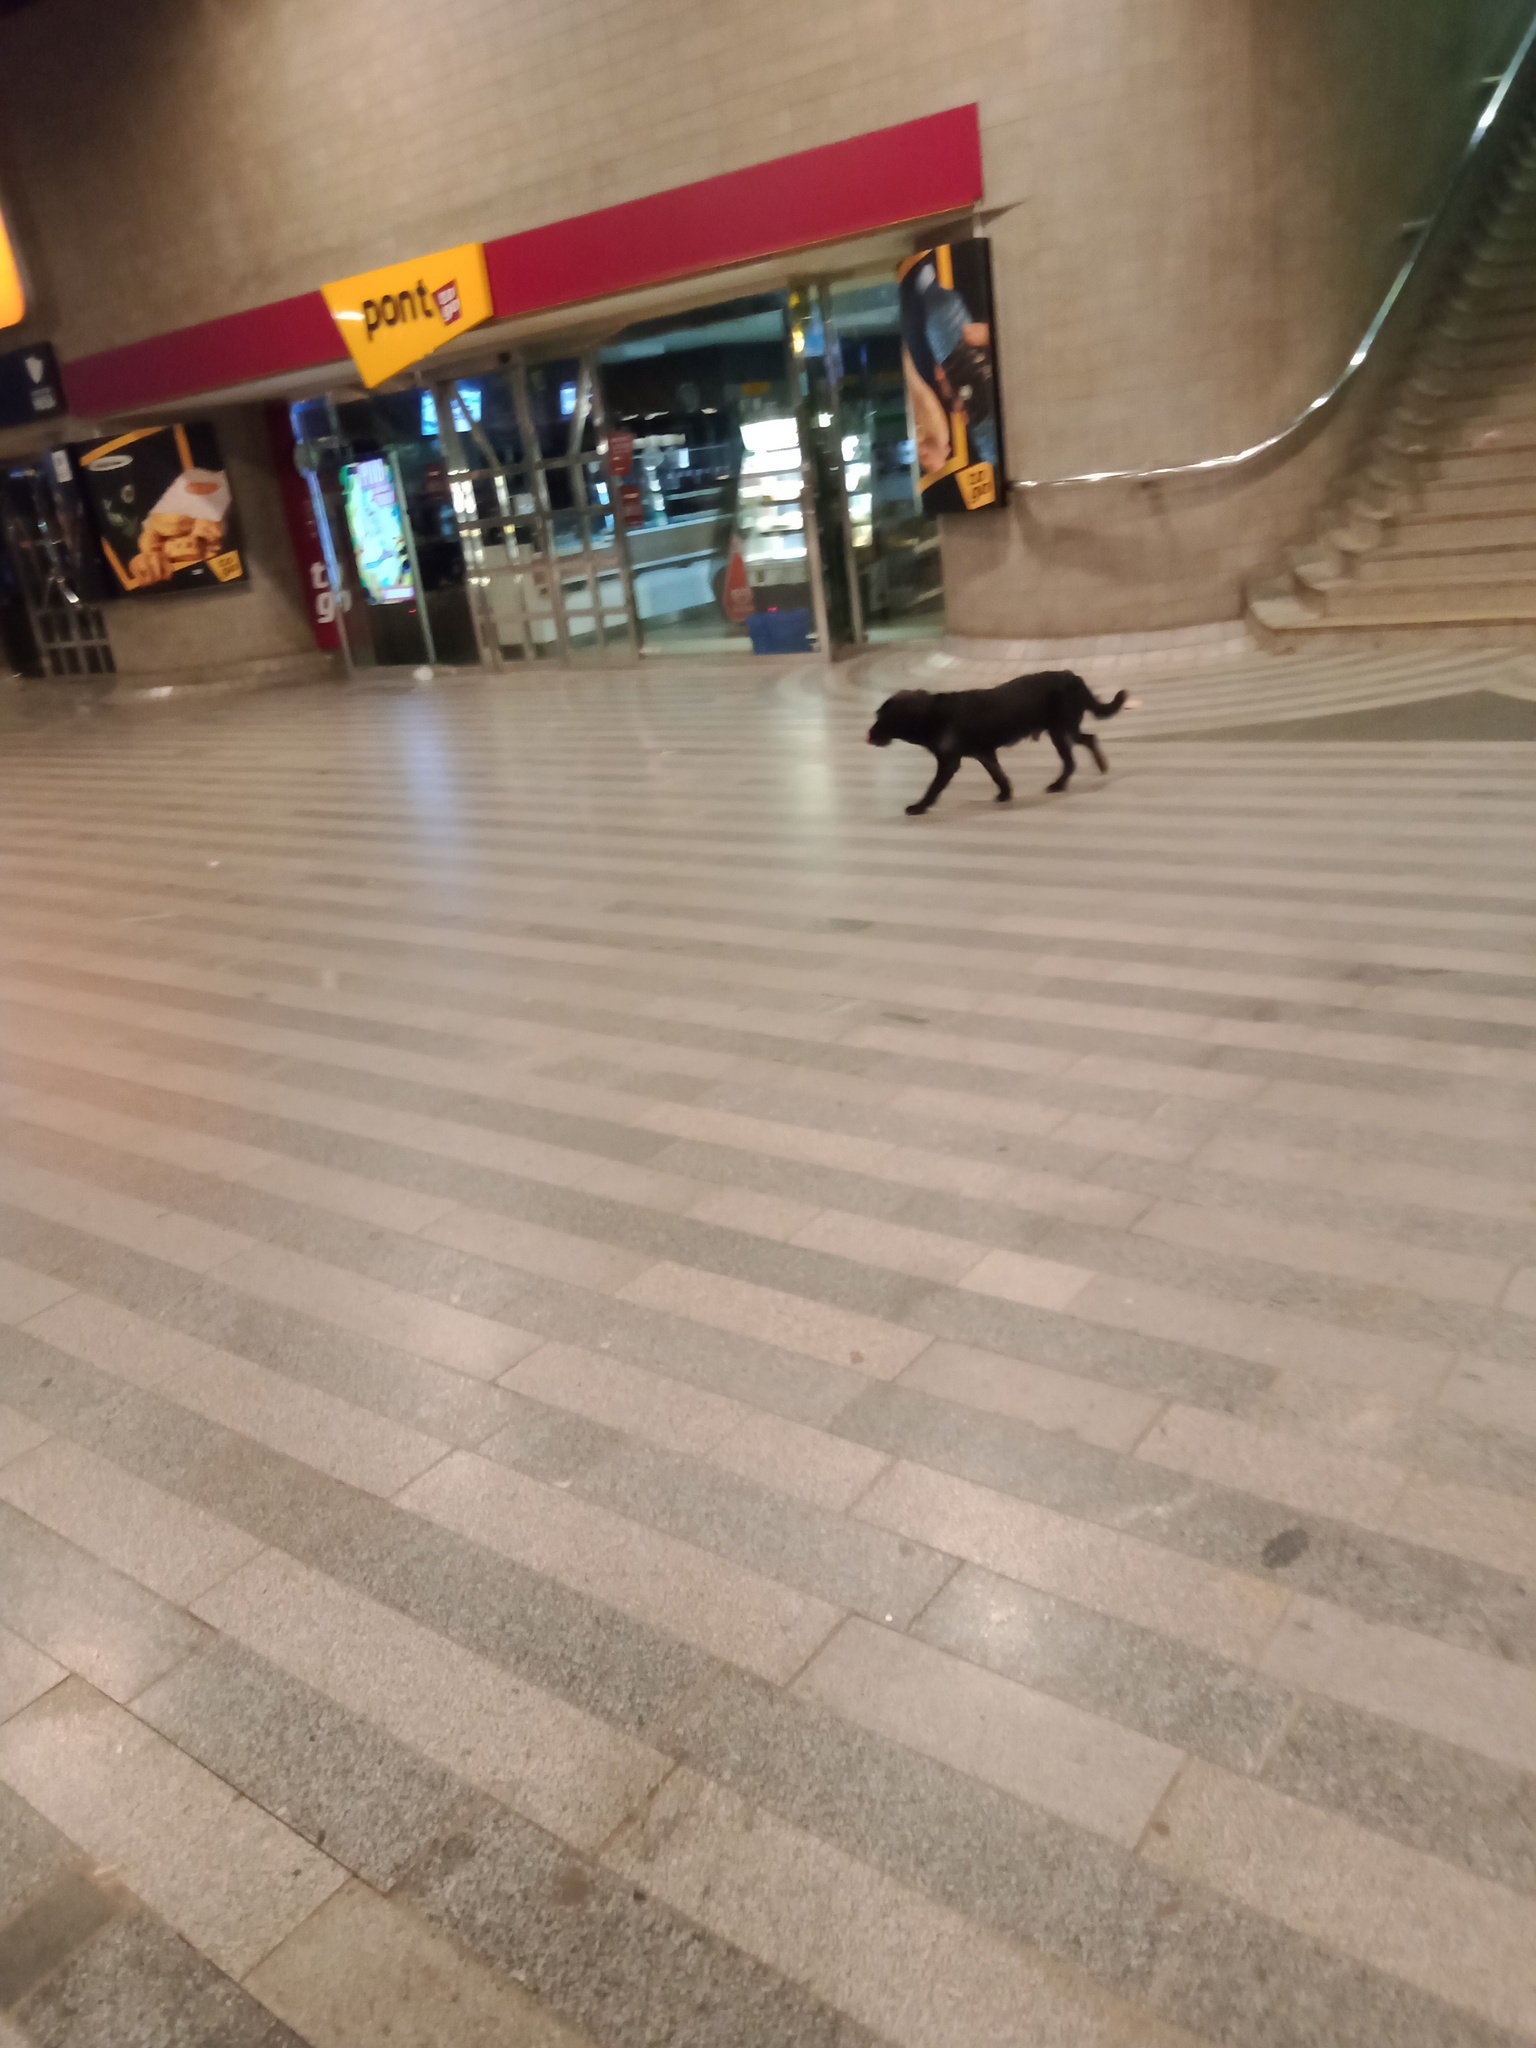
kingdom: Animalia
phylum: Chordata
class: Mammalia
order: Carnivora
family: Canidae
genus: Canis
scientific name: Canis lupus
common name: Gray wolf
